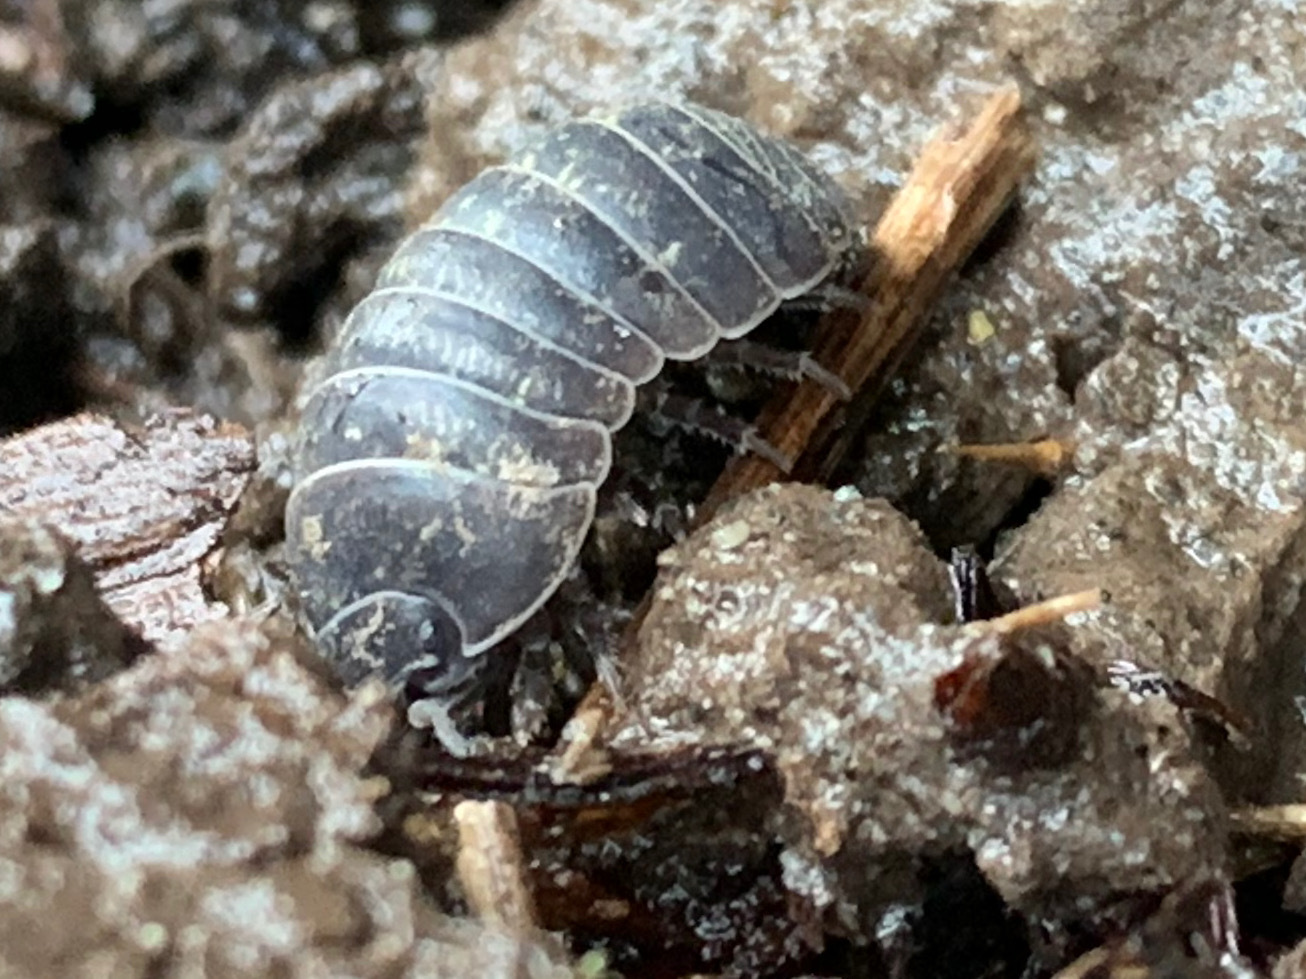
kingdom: Animalia
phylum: Arthropoda
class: Malacostraca
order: Isopoda
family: Armadillidiidae
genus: Armadillidium
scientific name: Armadillidium vulgare
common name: Common pill woodlouse
